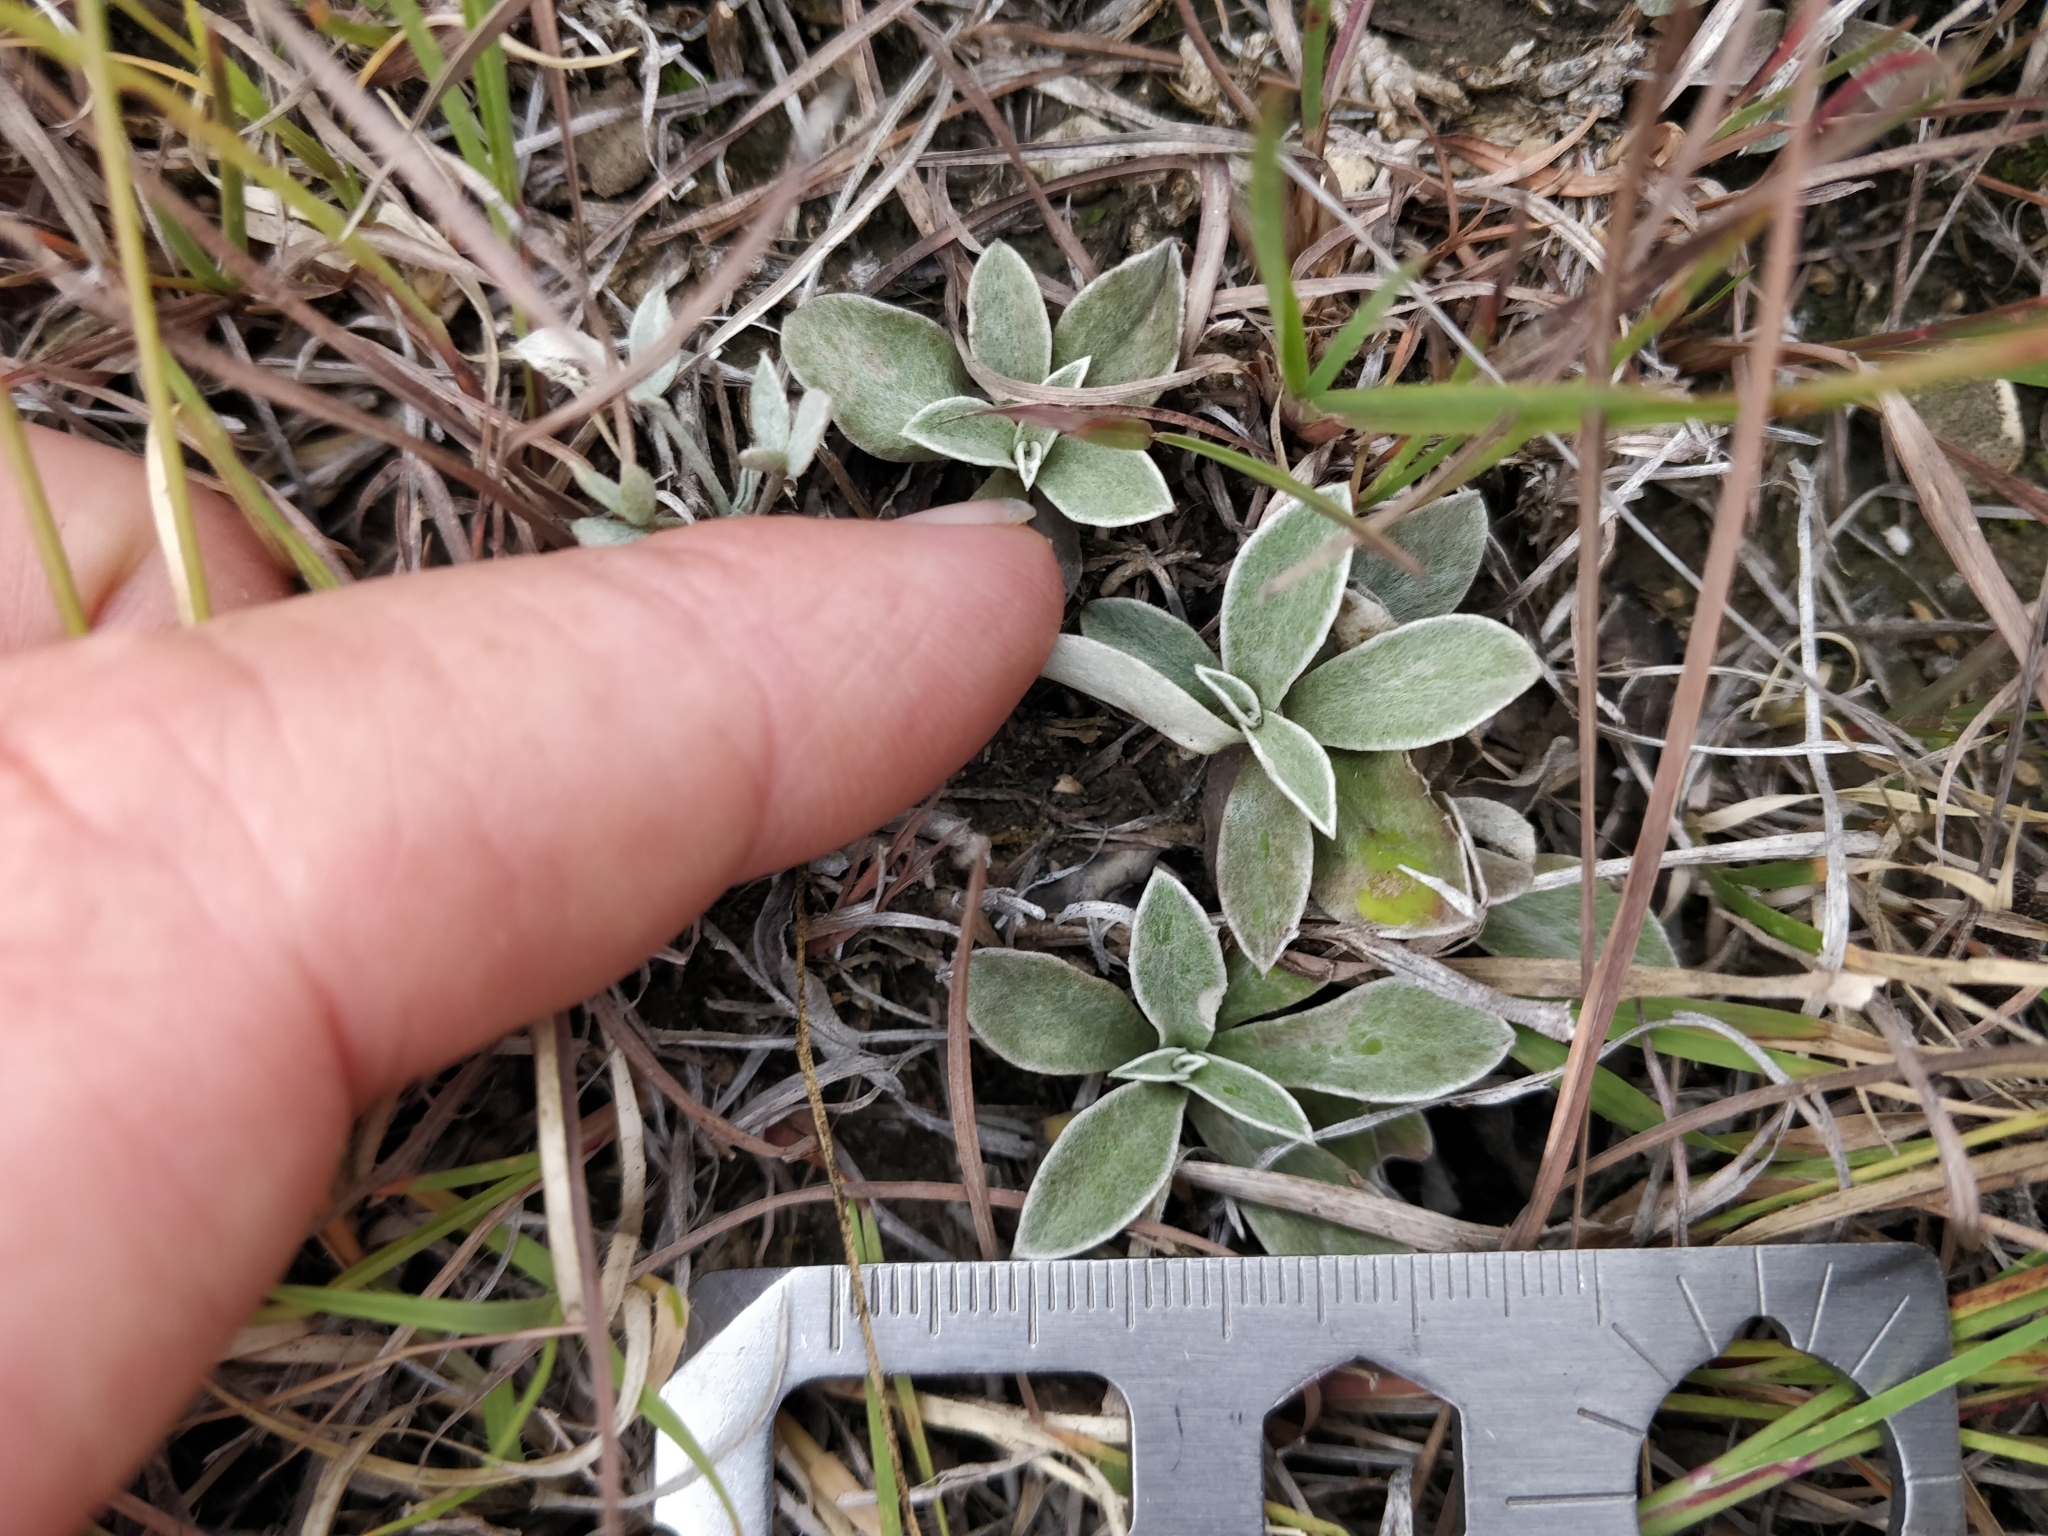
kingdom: Plantae
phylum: Tracheophyta
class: Magnoliopsida
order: Asterales
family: Asteraceae
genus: Antennaria
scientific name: Antennaria neglecta
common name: Field pussytoes
